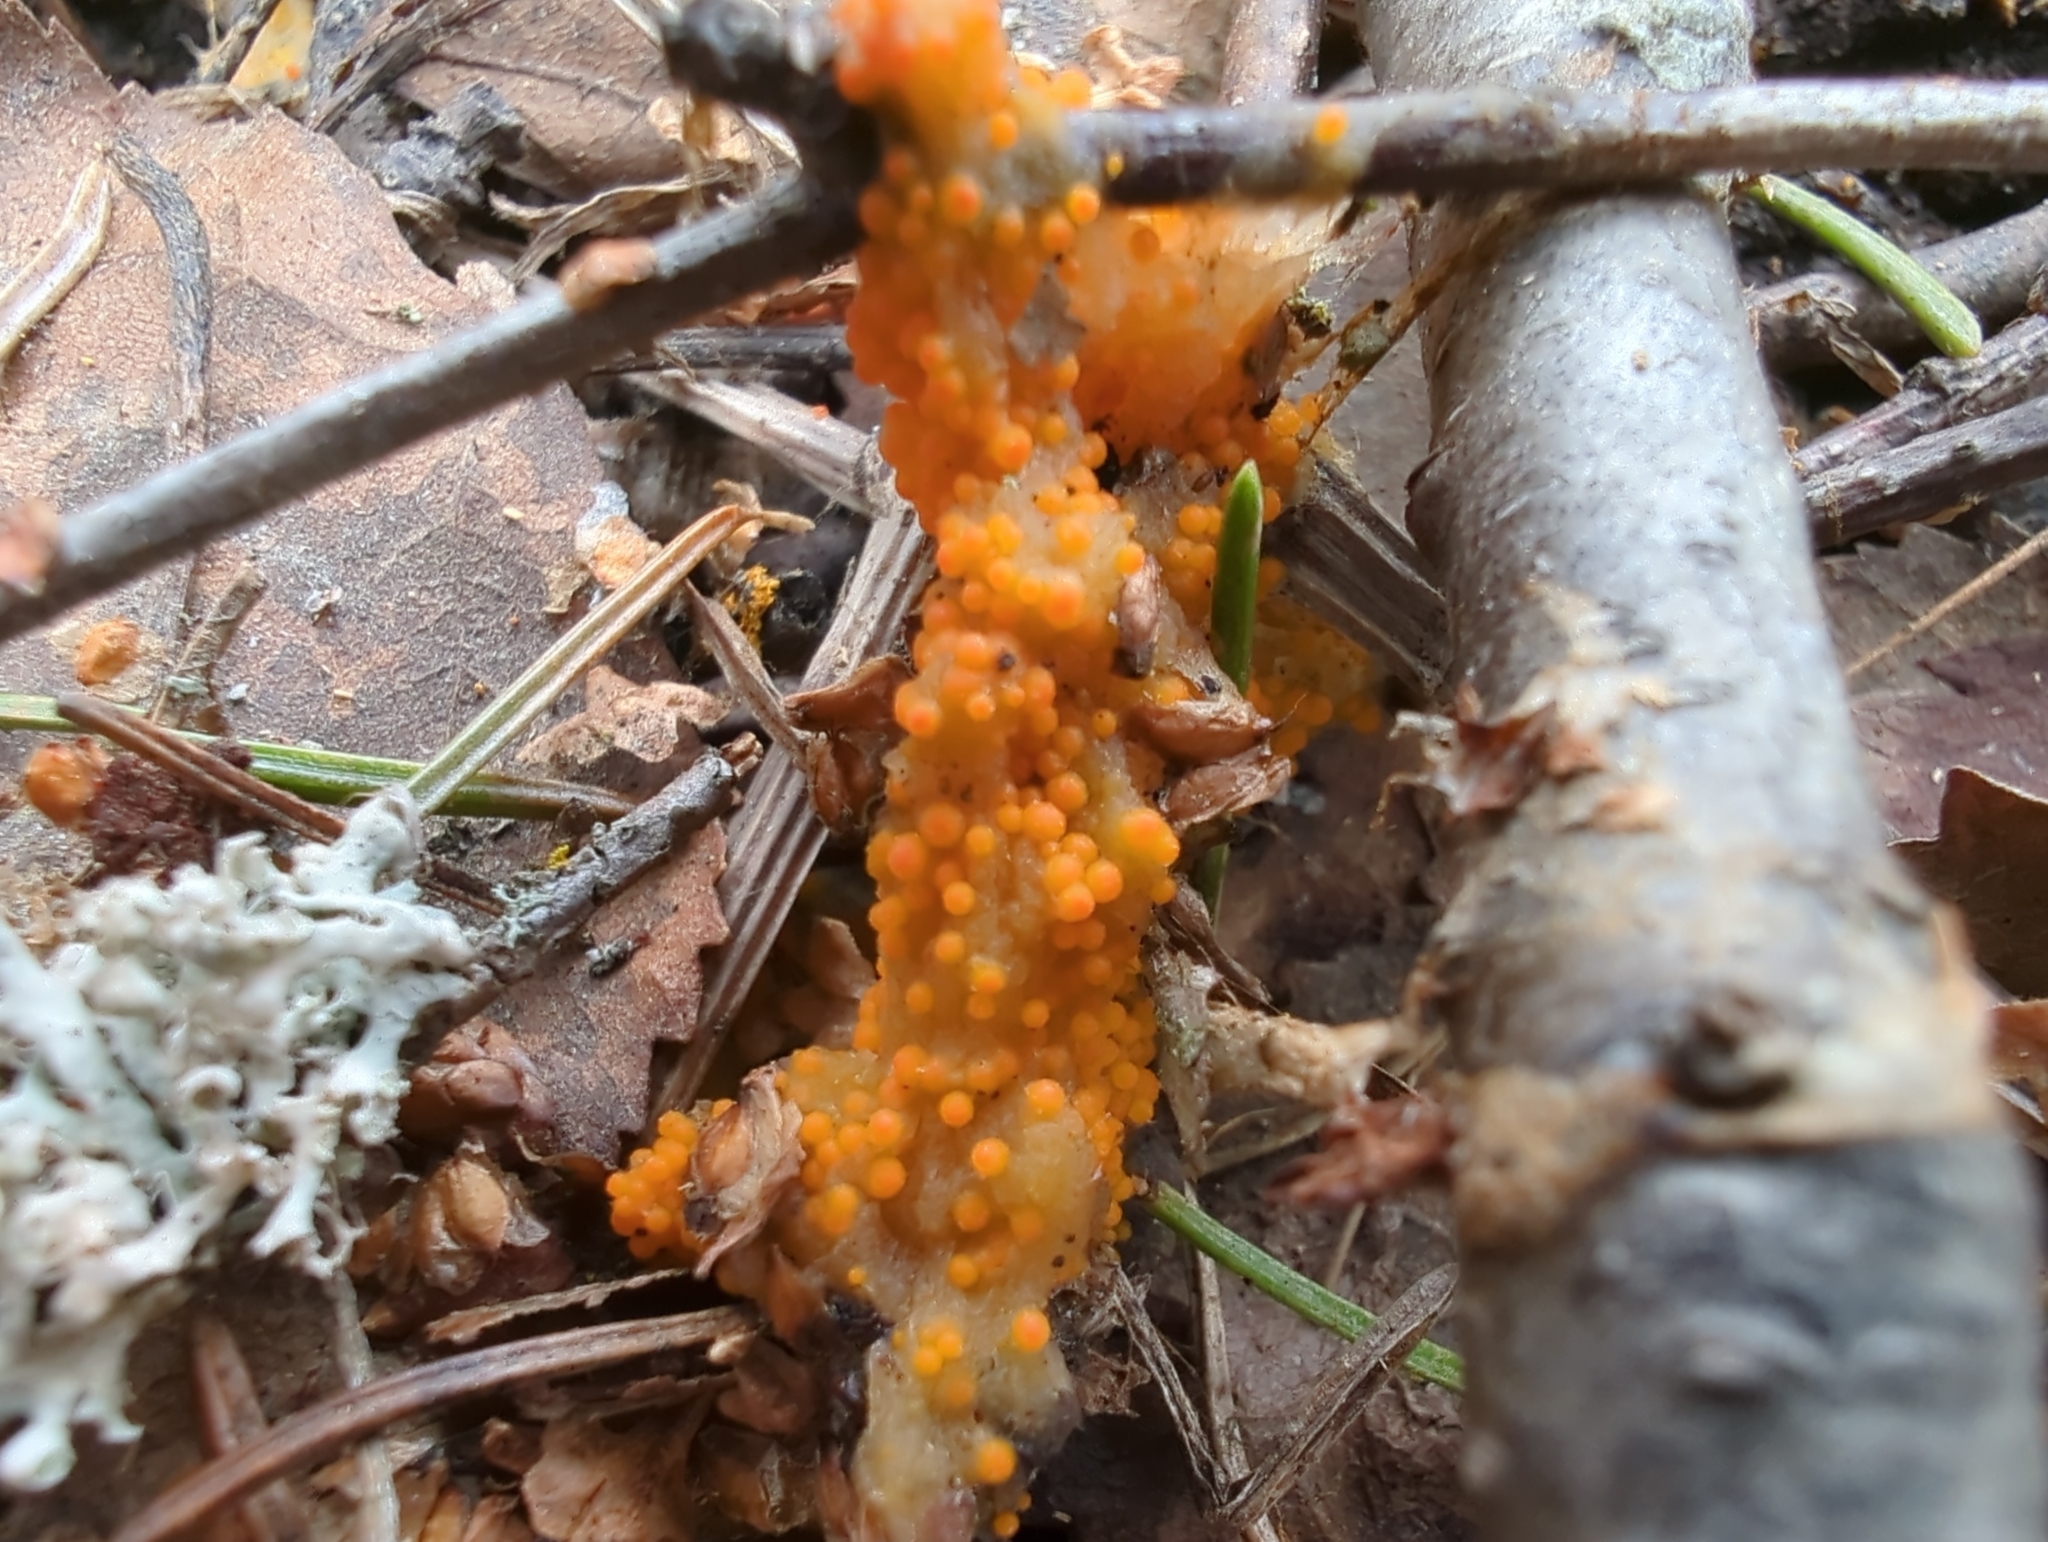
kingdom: Fungi
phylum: Ascomycota
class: Pezizomycetes
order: Pezizales
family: Pyronemataceae
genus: Byssonectria
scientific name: Byssonectria terrestris
